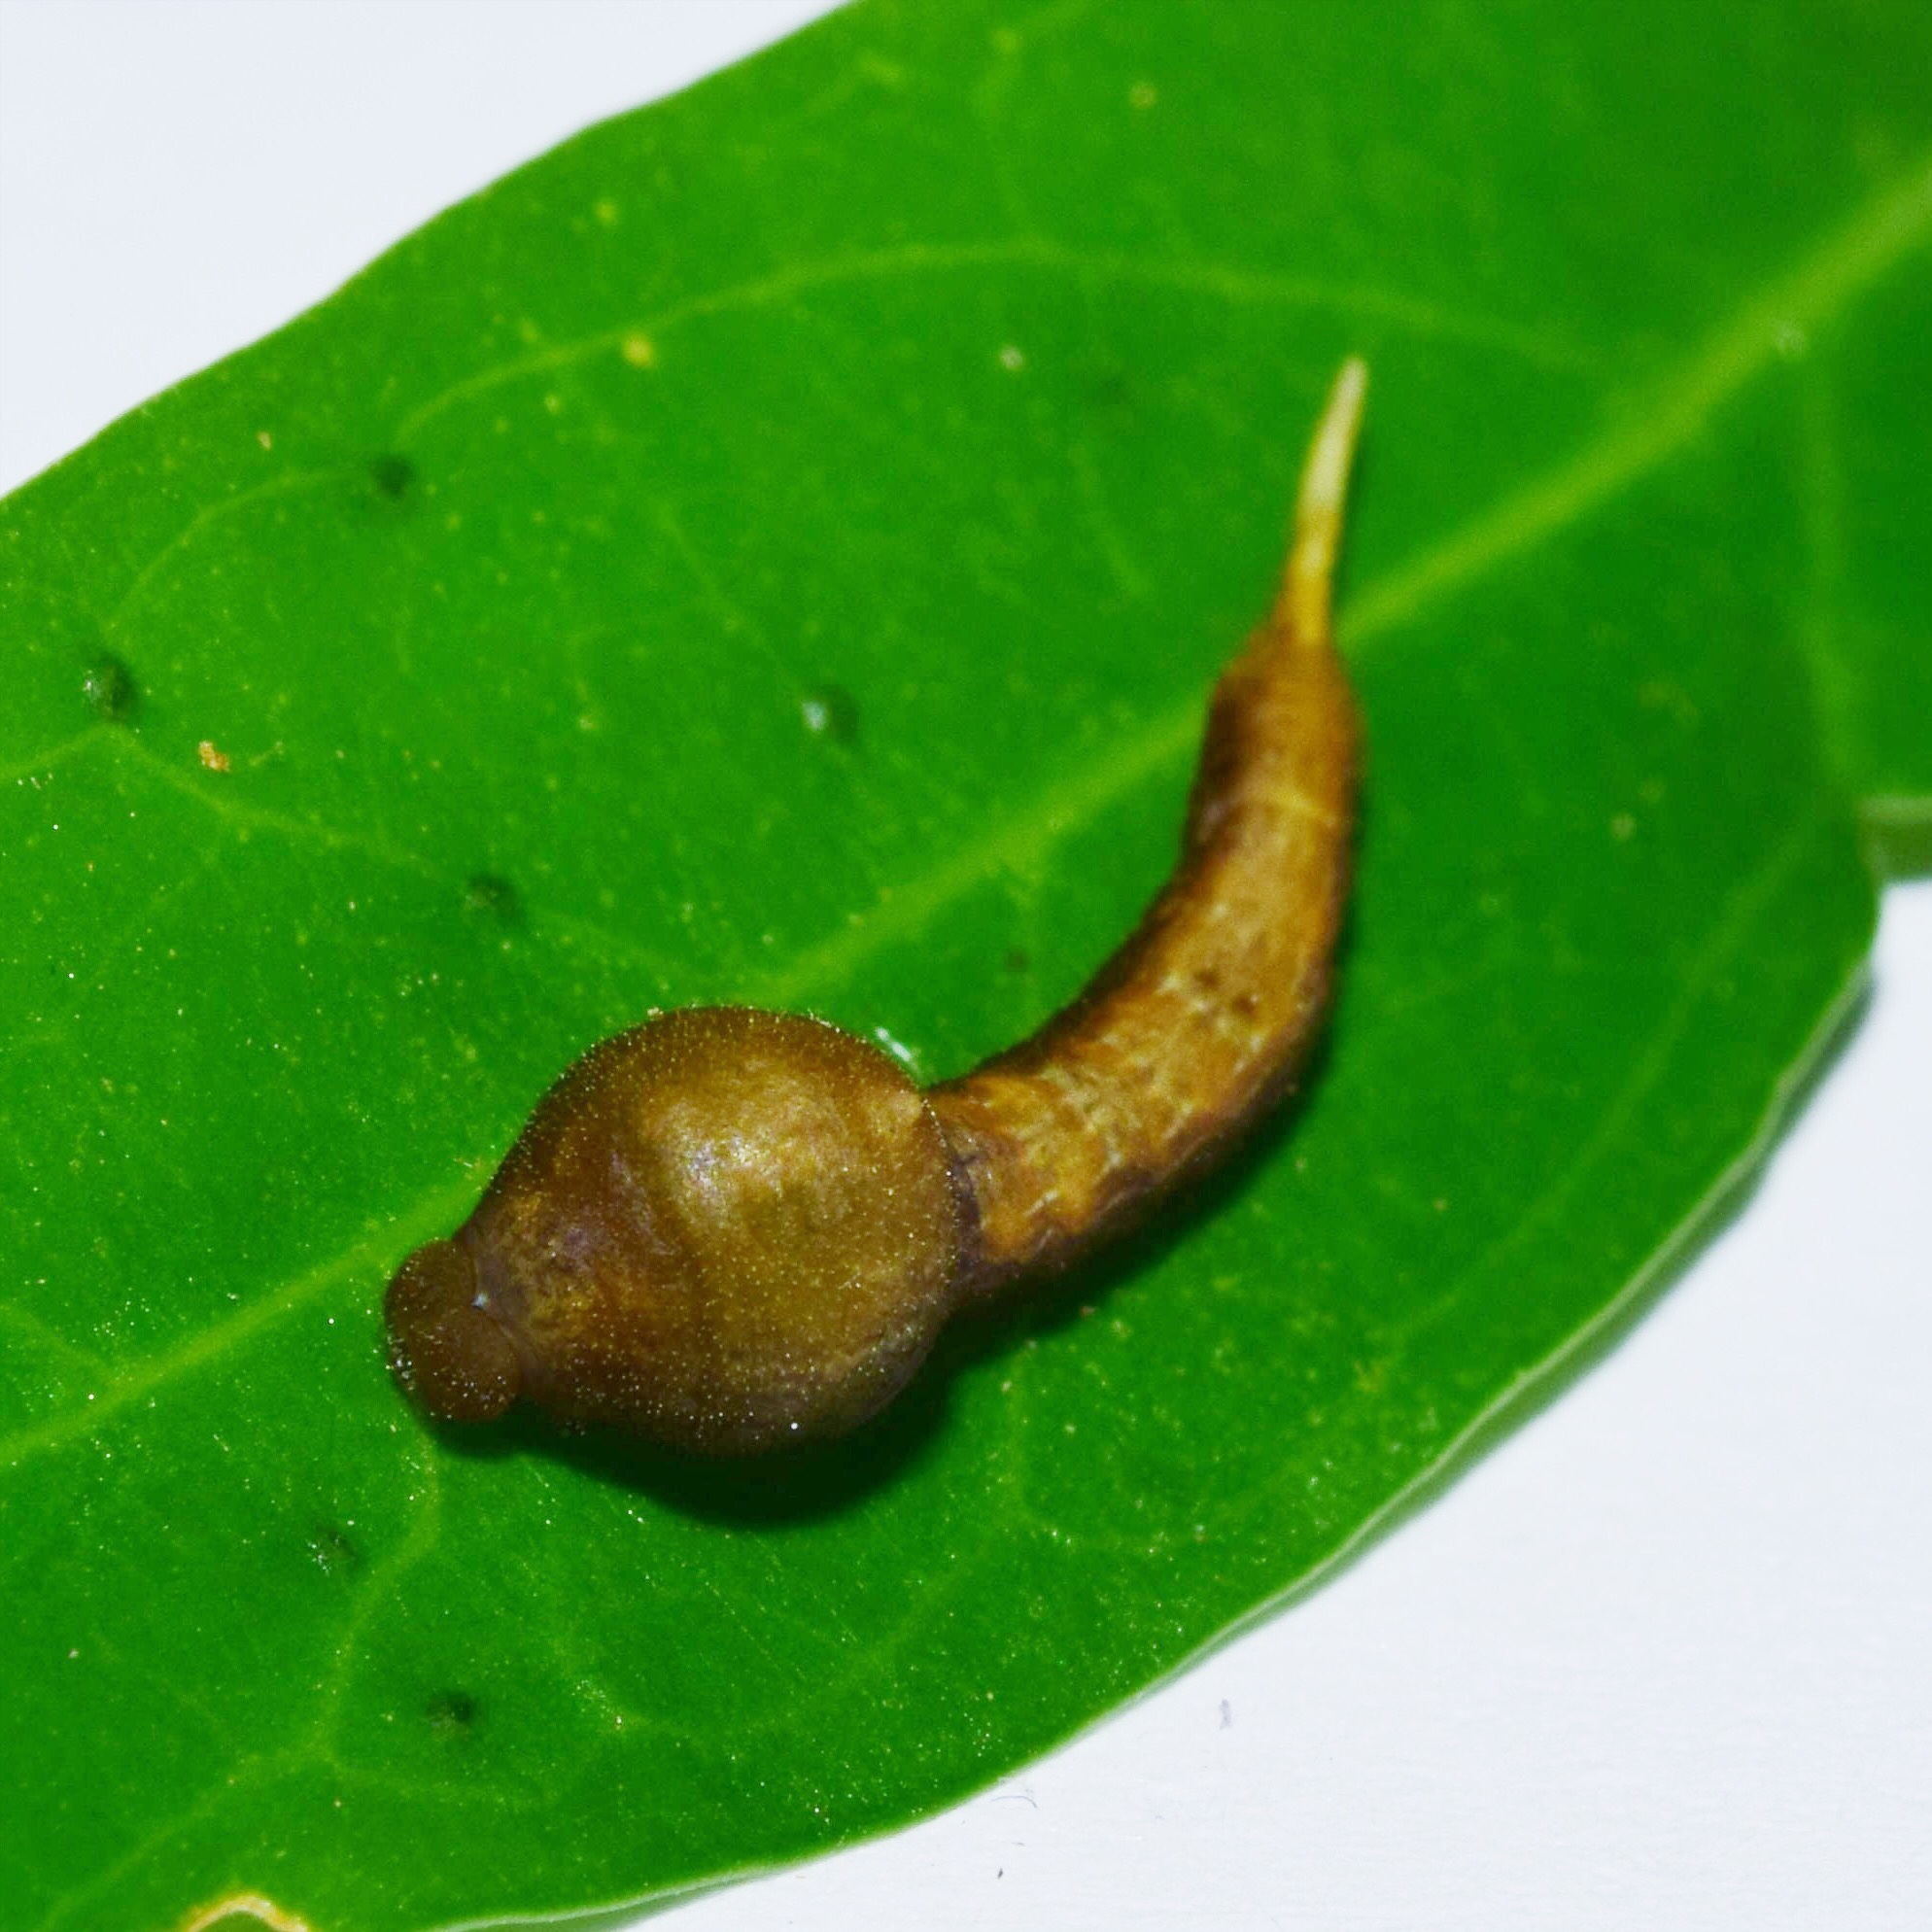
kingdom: Animalia
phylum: Arthropoda
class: Insecta
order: Lepidoptera
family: Drepanidae
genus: Negera
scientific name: Negera natalensis
